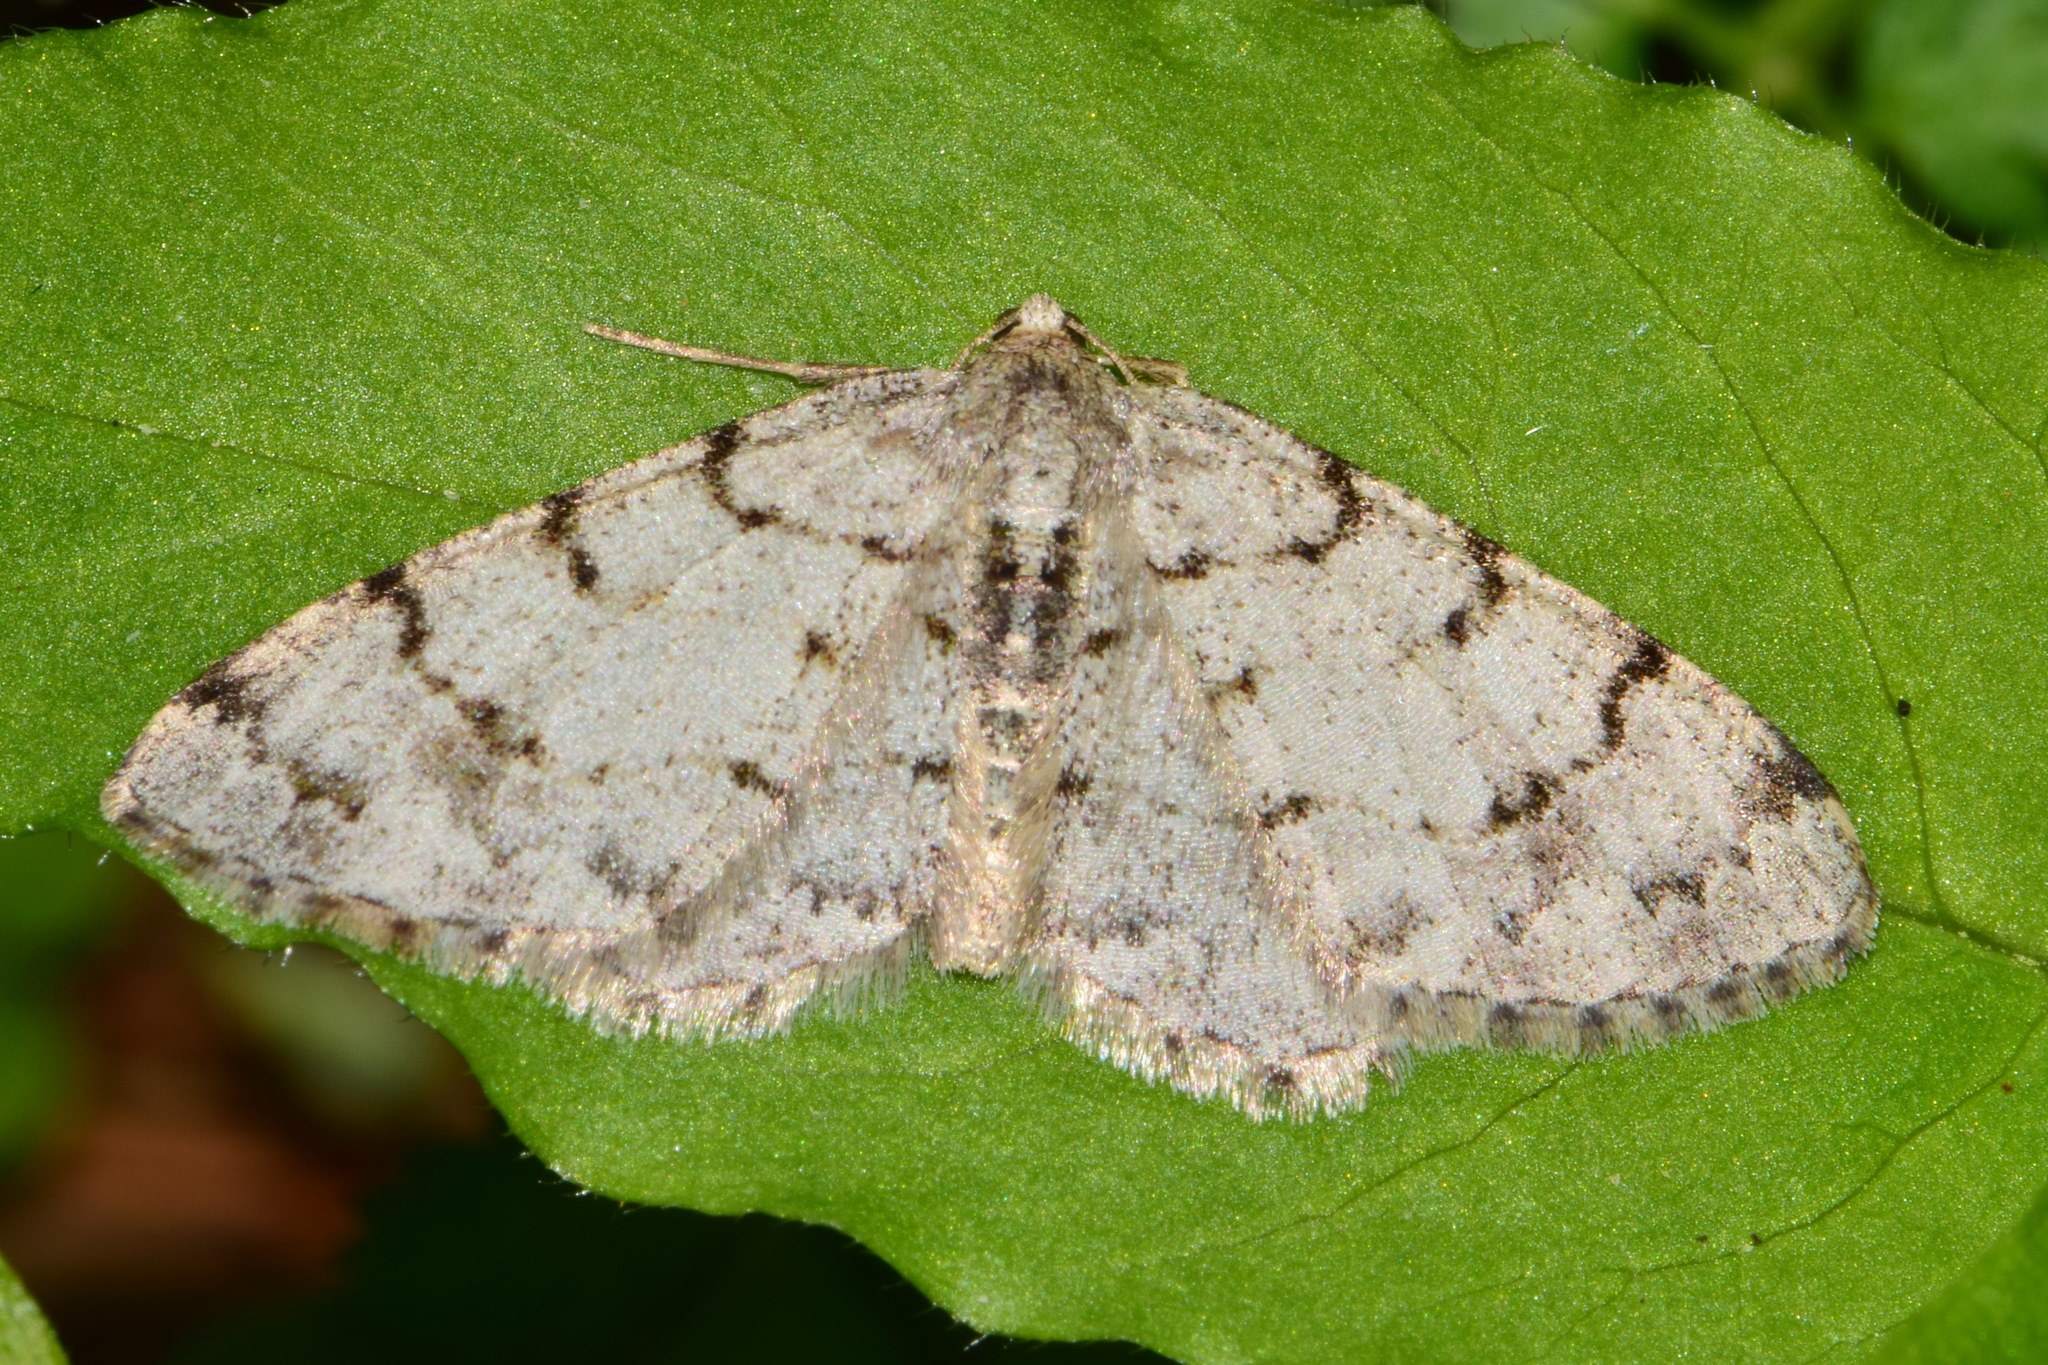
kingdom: Animalia
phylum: Arthropoda
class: Insecta
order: Lepidoptera
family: Geometridae
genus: Aethalura
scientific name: Aethalura punctulata
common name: Grey birch
